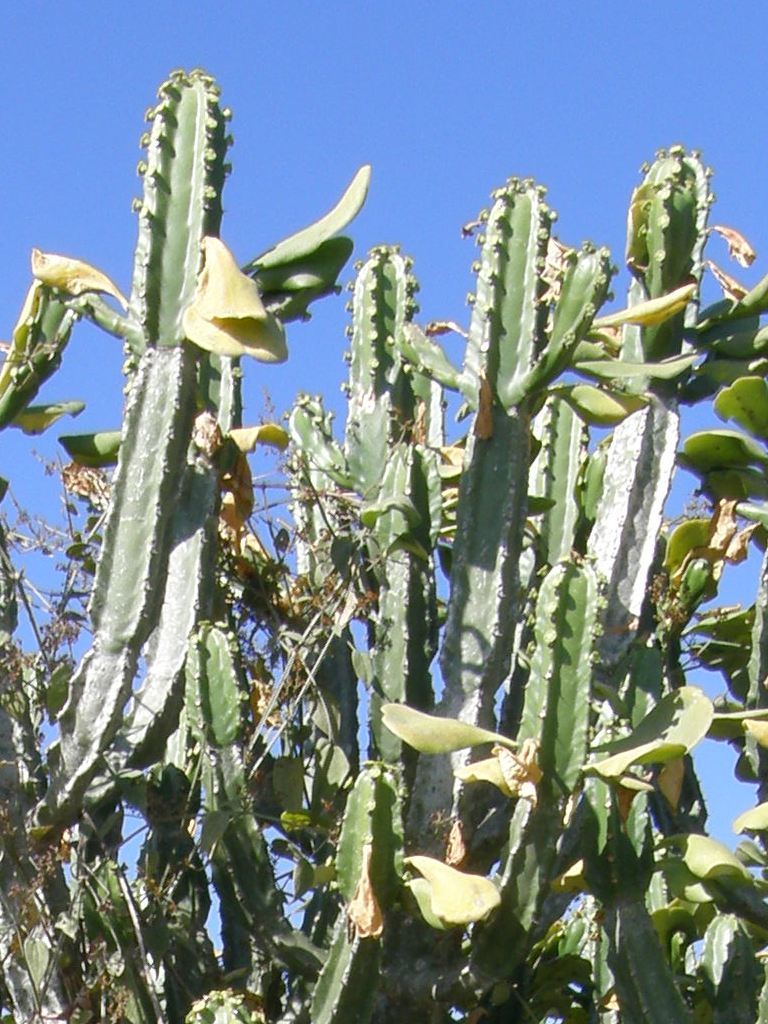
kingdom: Plantae
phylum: Tracheophyta
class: Magnoliopsida
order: Malpighiales
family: Euphorbiaceae
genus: Euphorbia
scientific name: Euphorbia royleana
